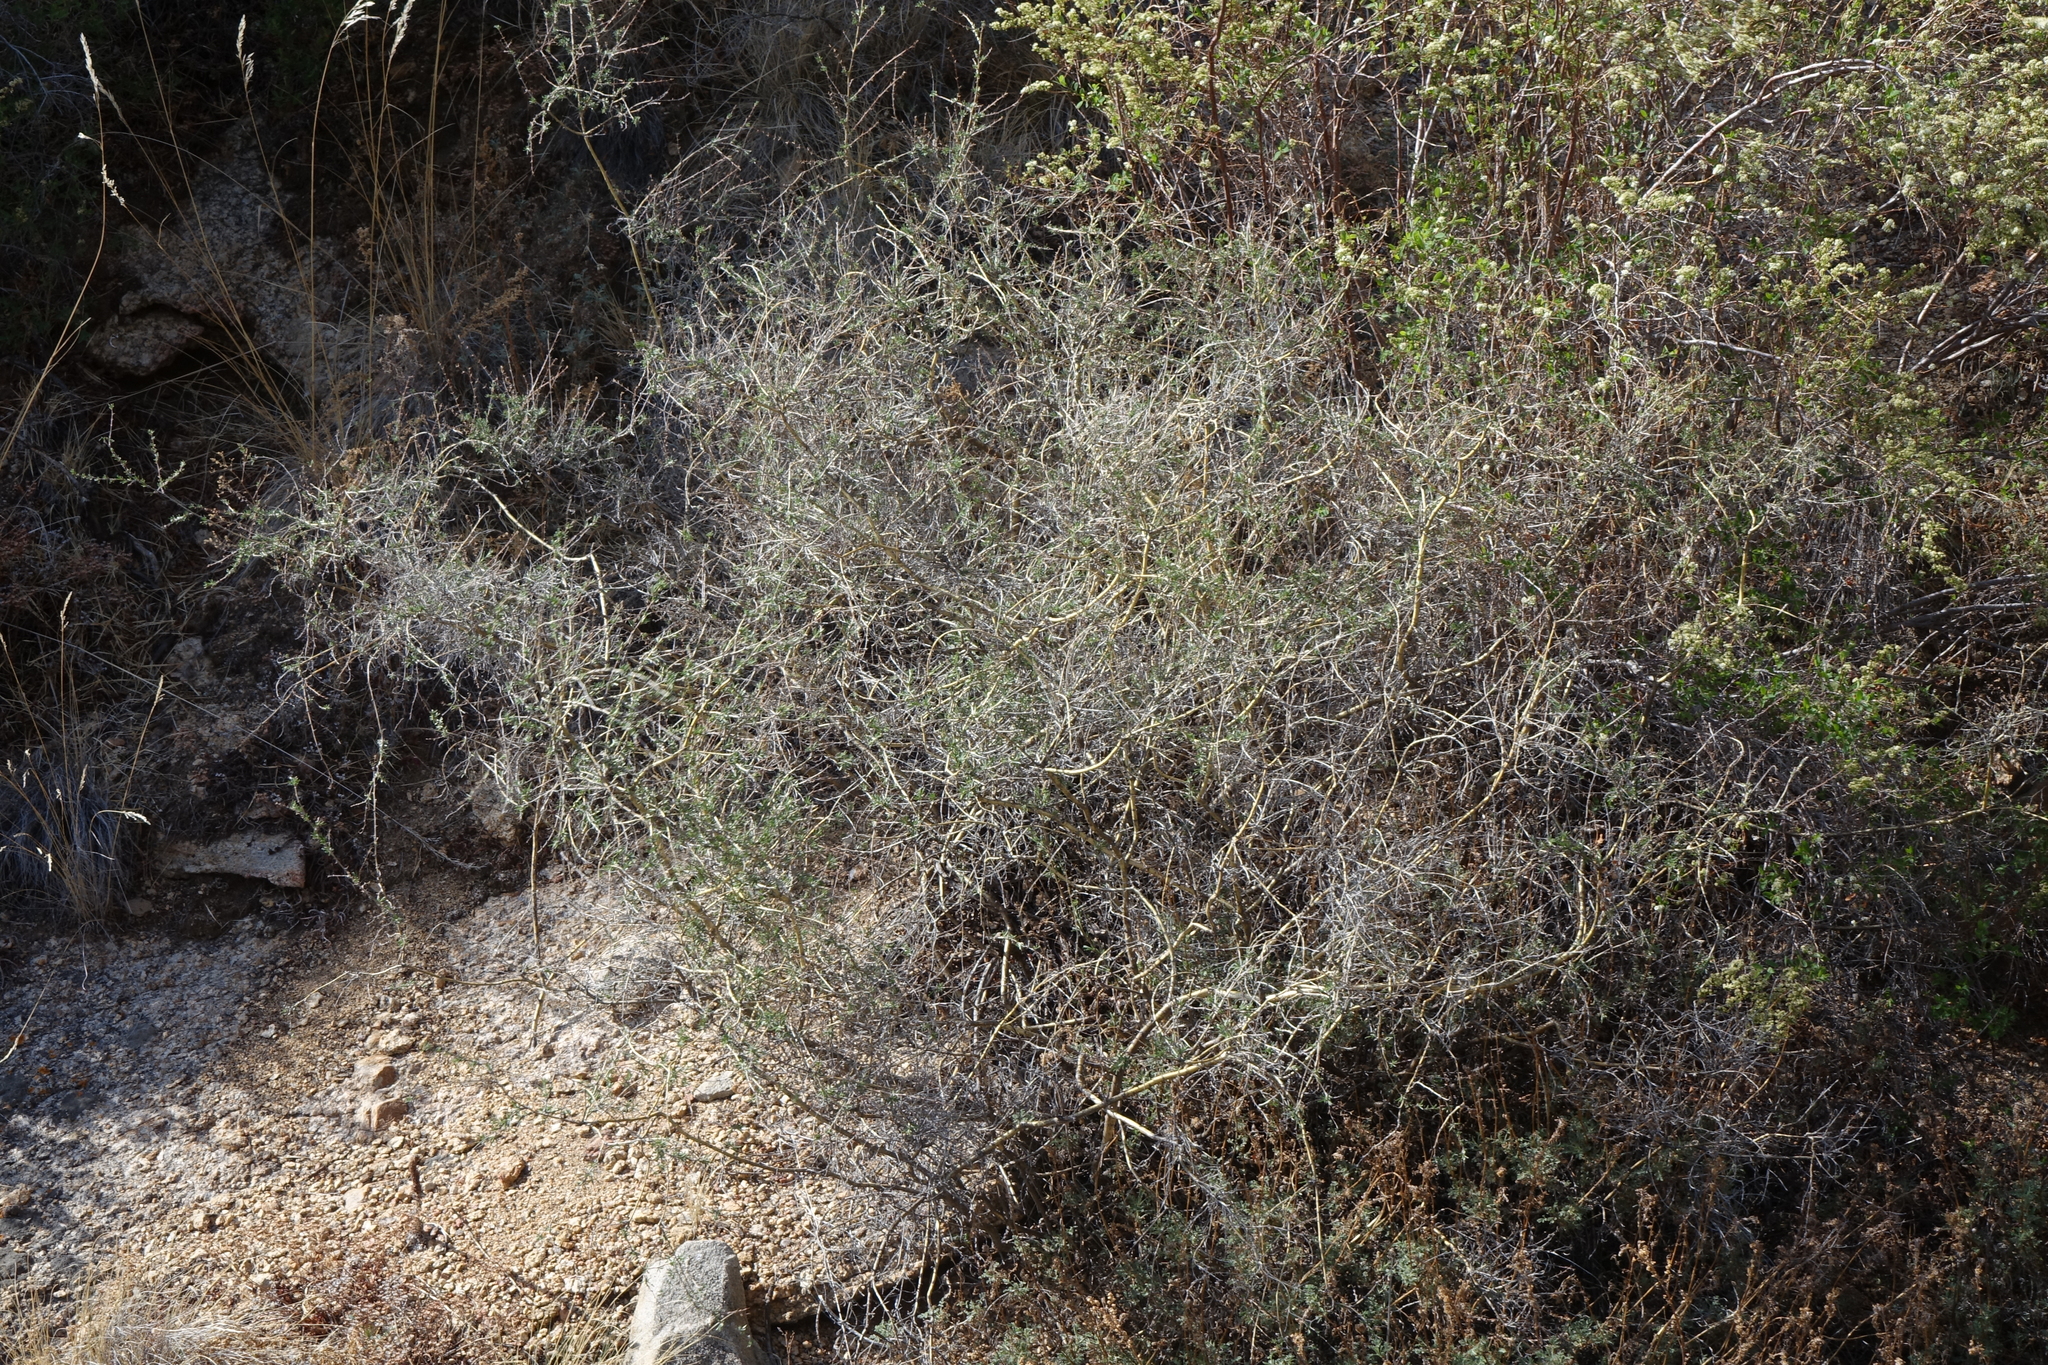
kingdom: Plantae
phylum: Tracheophyta
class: Magnoliopsida
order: Fabales
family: Fabaceae
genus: Caragana
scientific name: Caragana pygmaea
